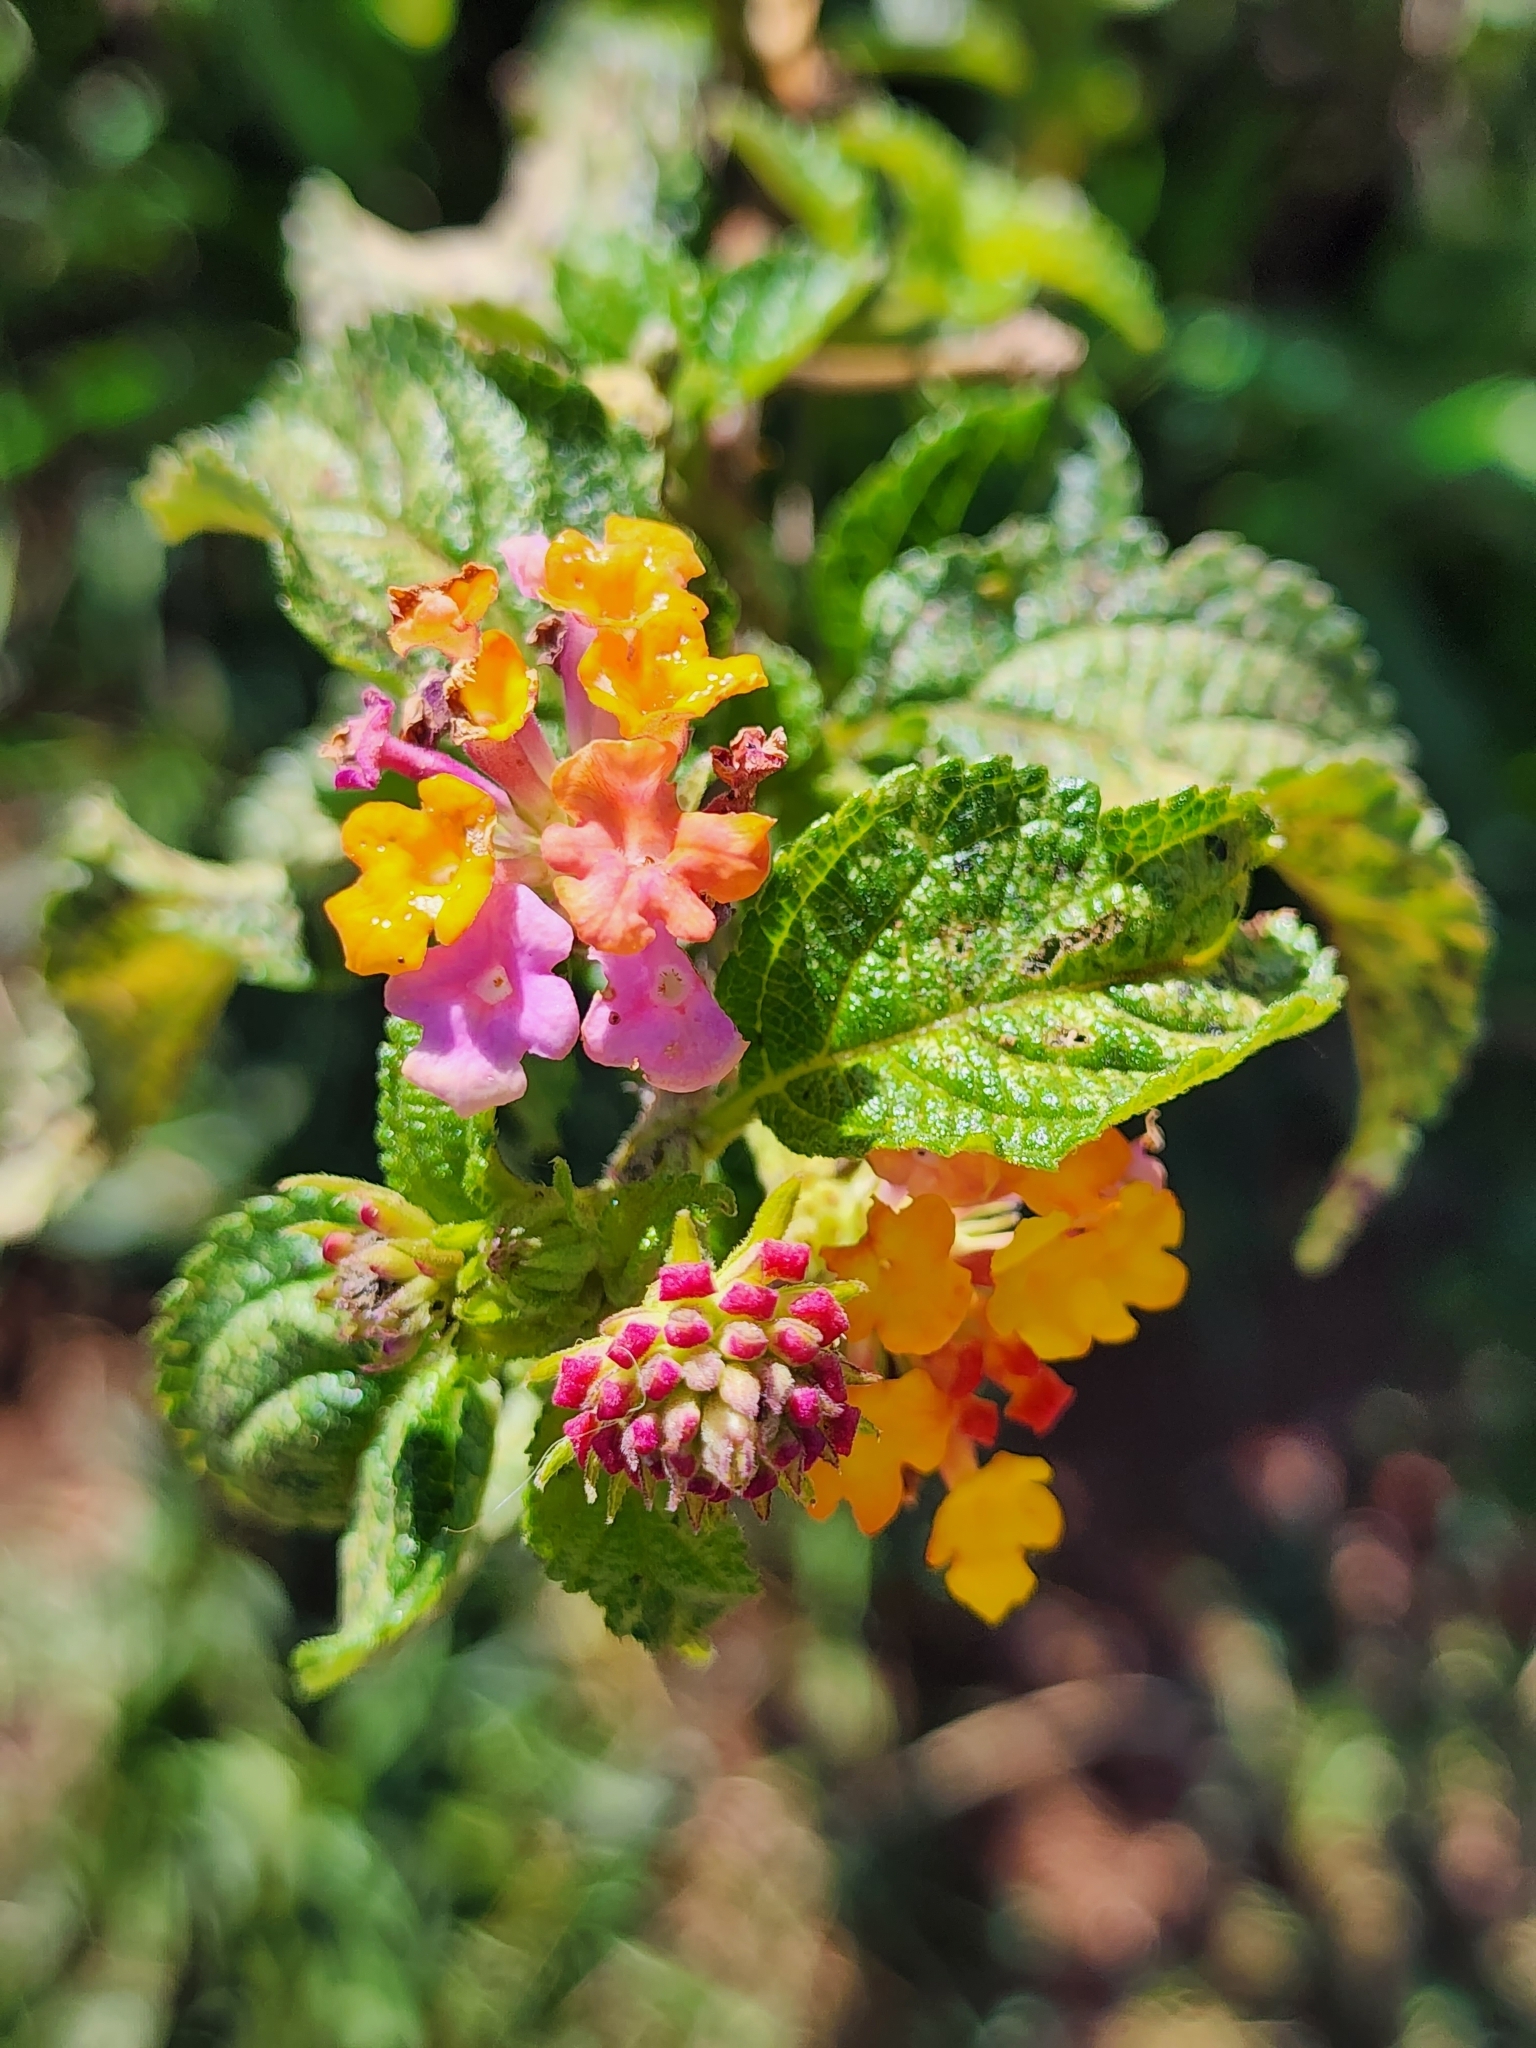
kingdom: Plantae
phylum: Tracheophyta
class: Magnoliopsida
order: Lamiales
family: Verbenaceae
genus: Lantana
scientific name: Lantana camara
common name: Lantana
